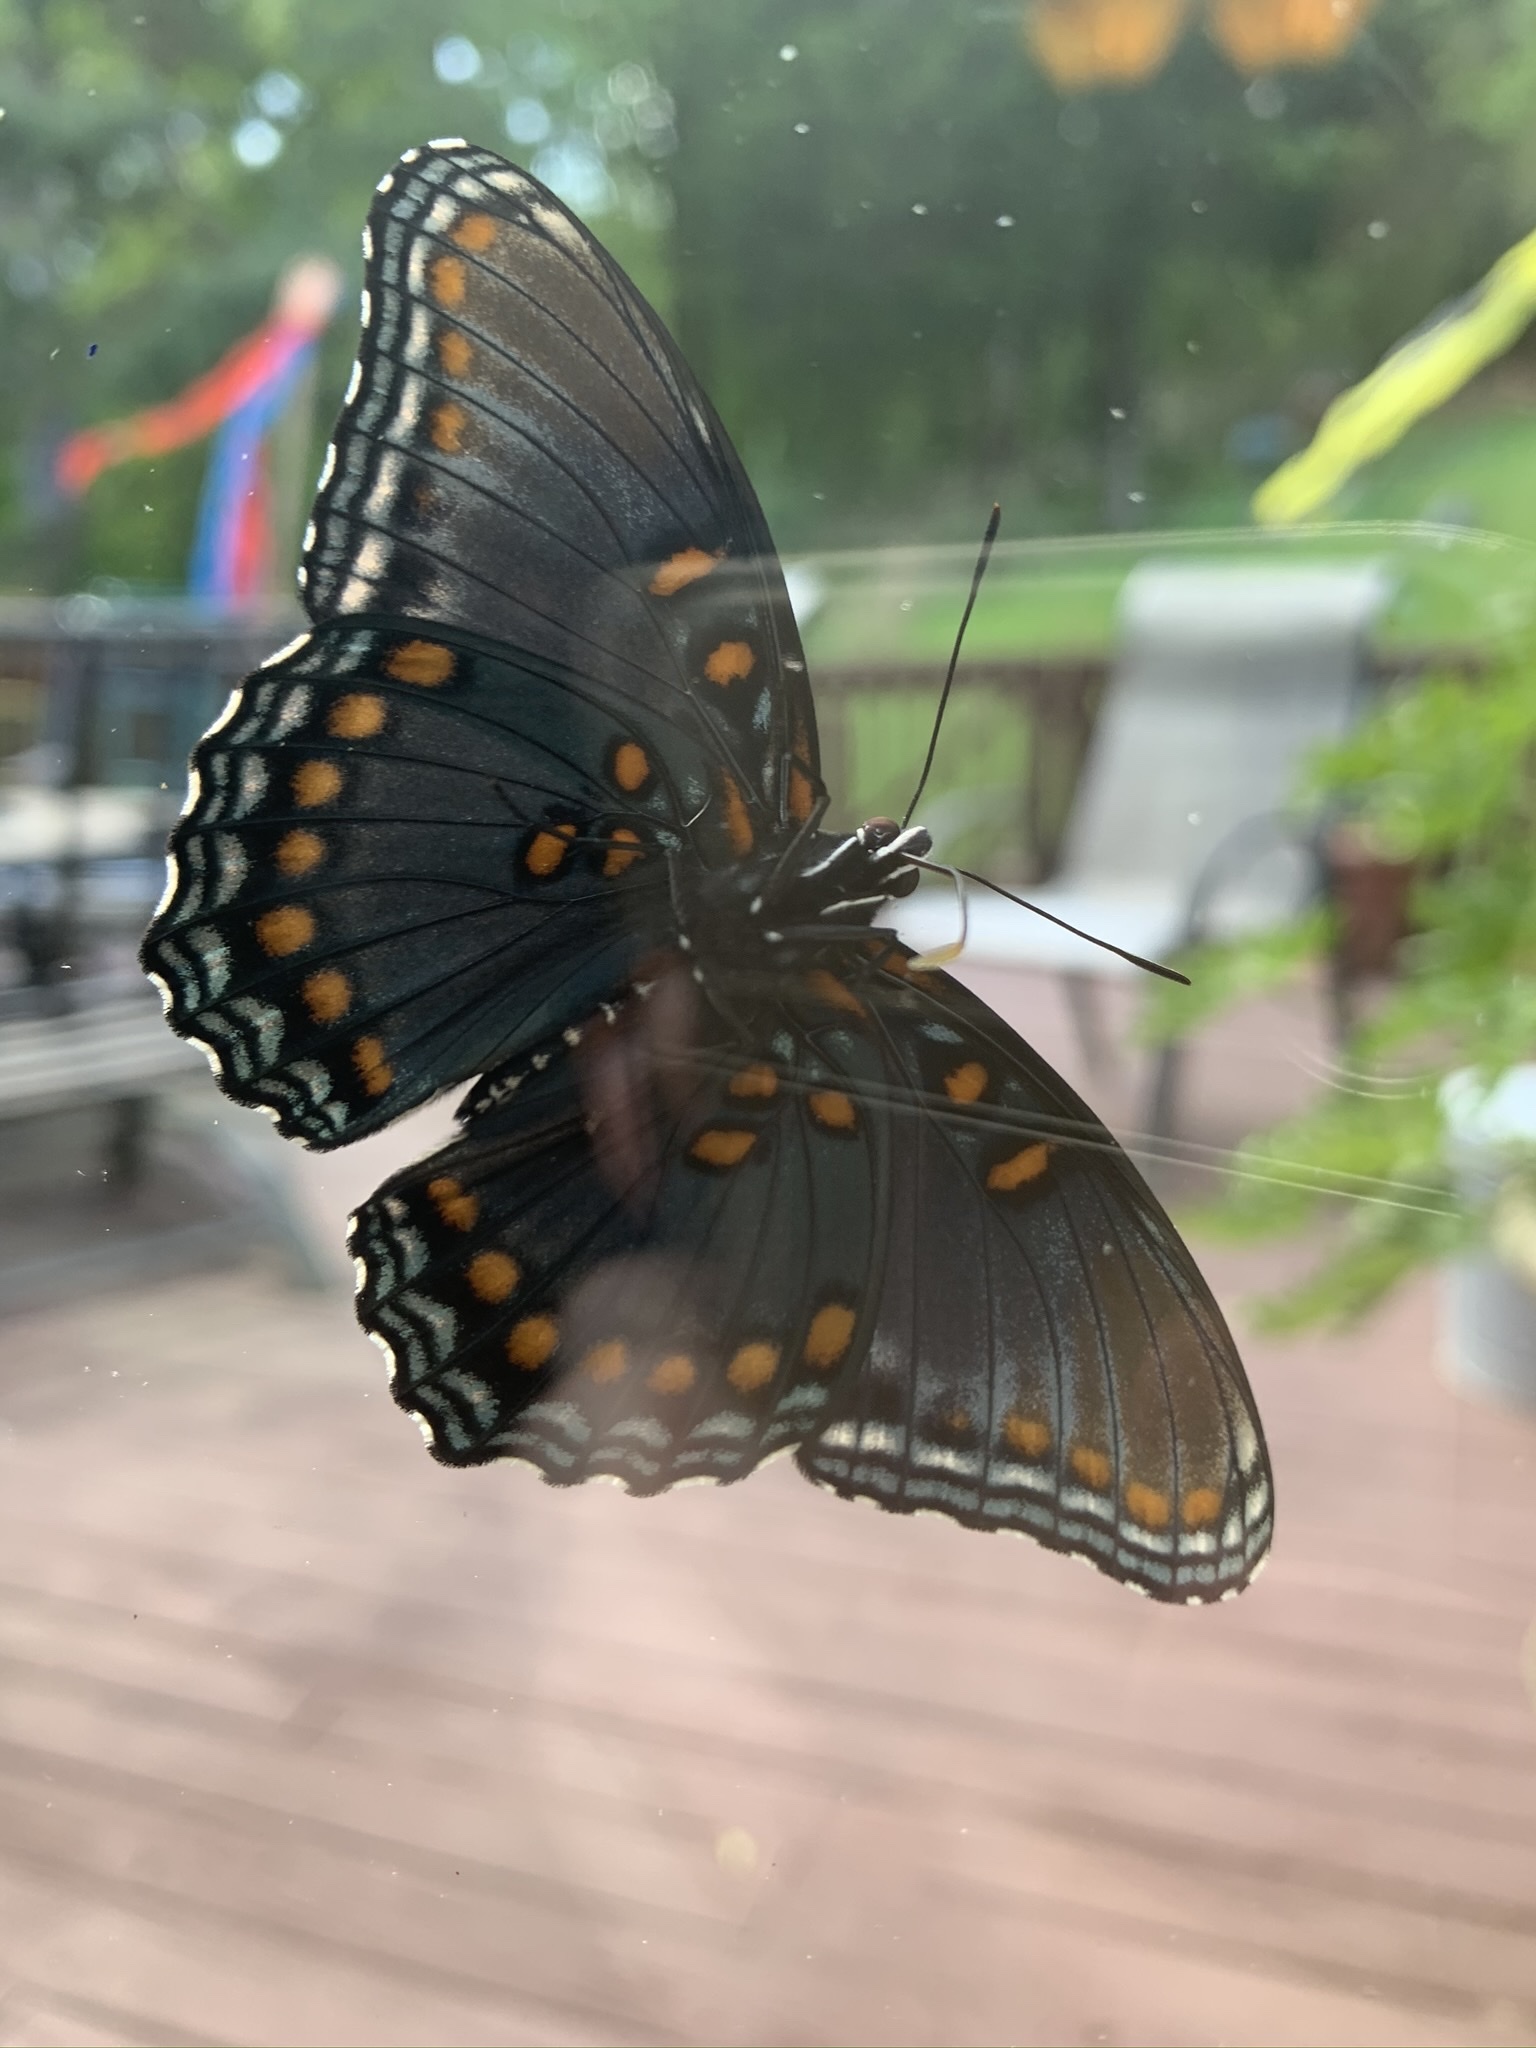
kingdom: Animalia
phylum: Arthropoda
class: Insecta
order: Lepidoptera
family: Nymphalidae
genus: Limenitis
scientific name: Limenitis astyanax
